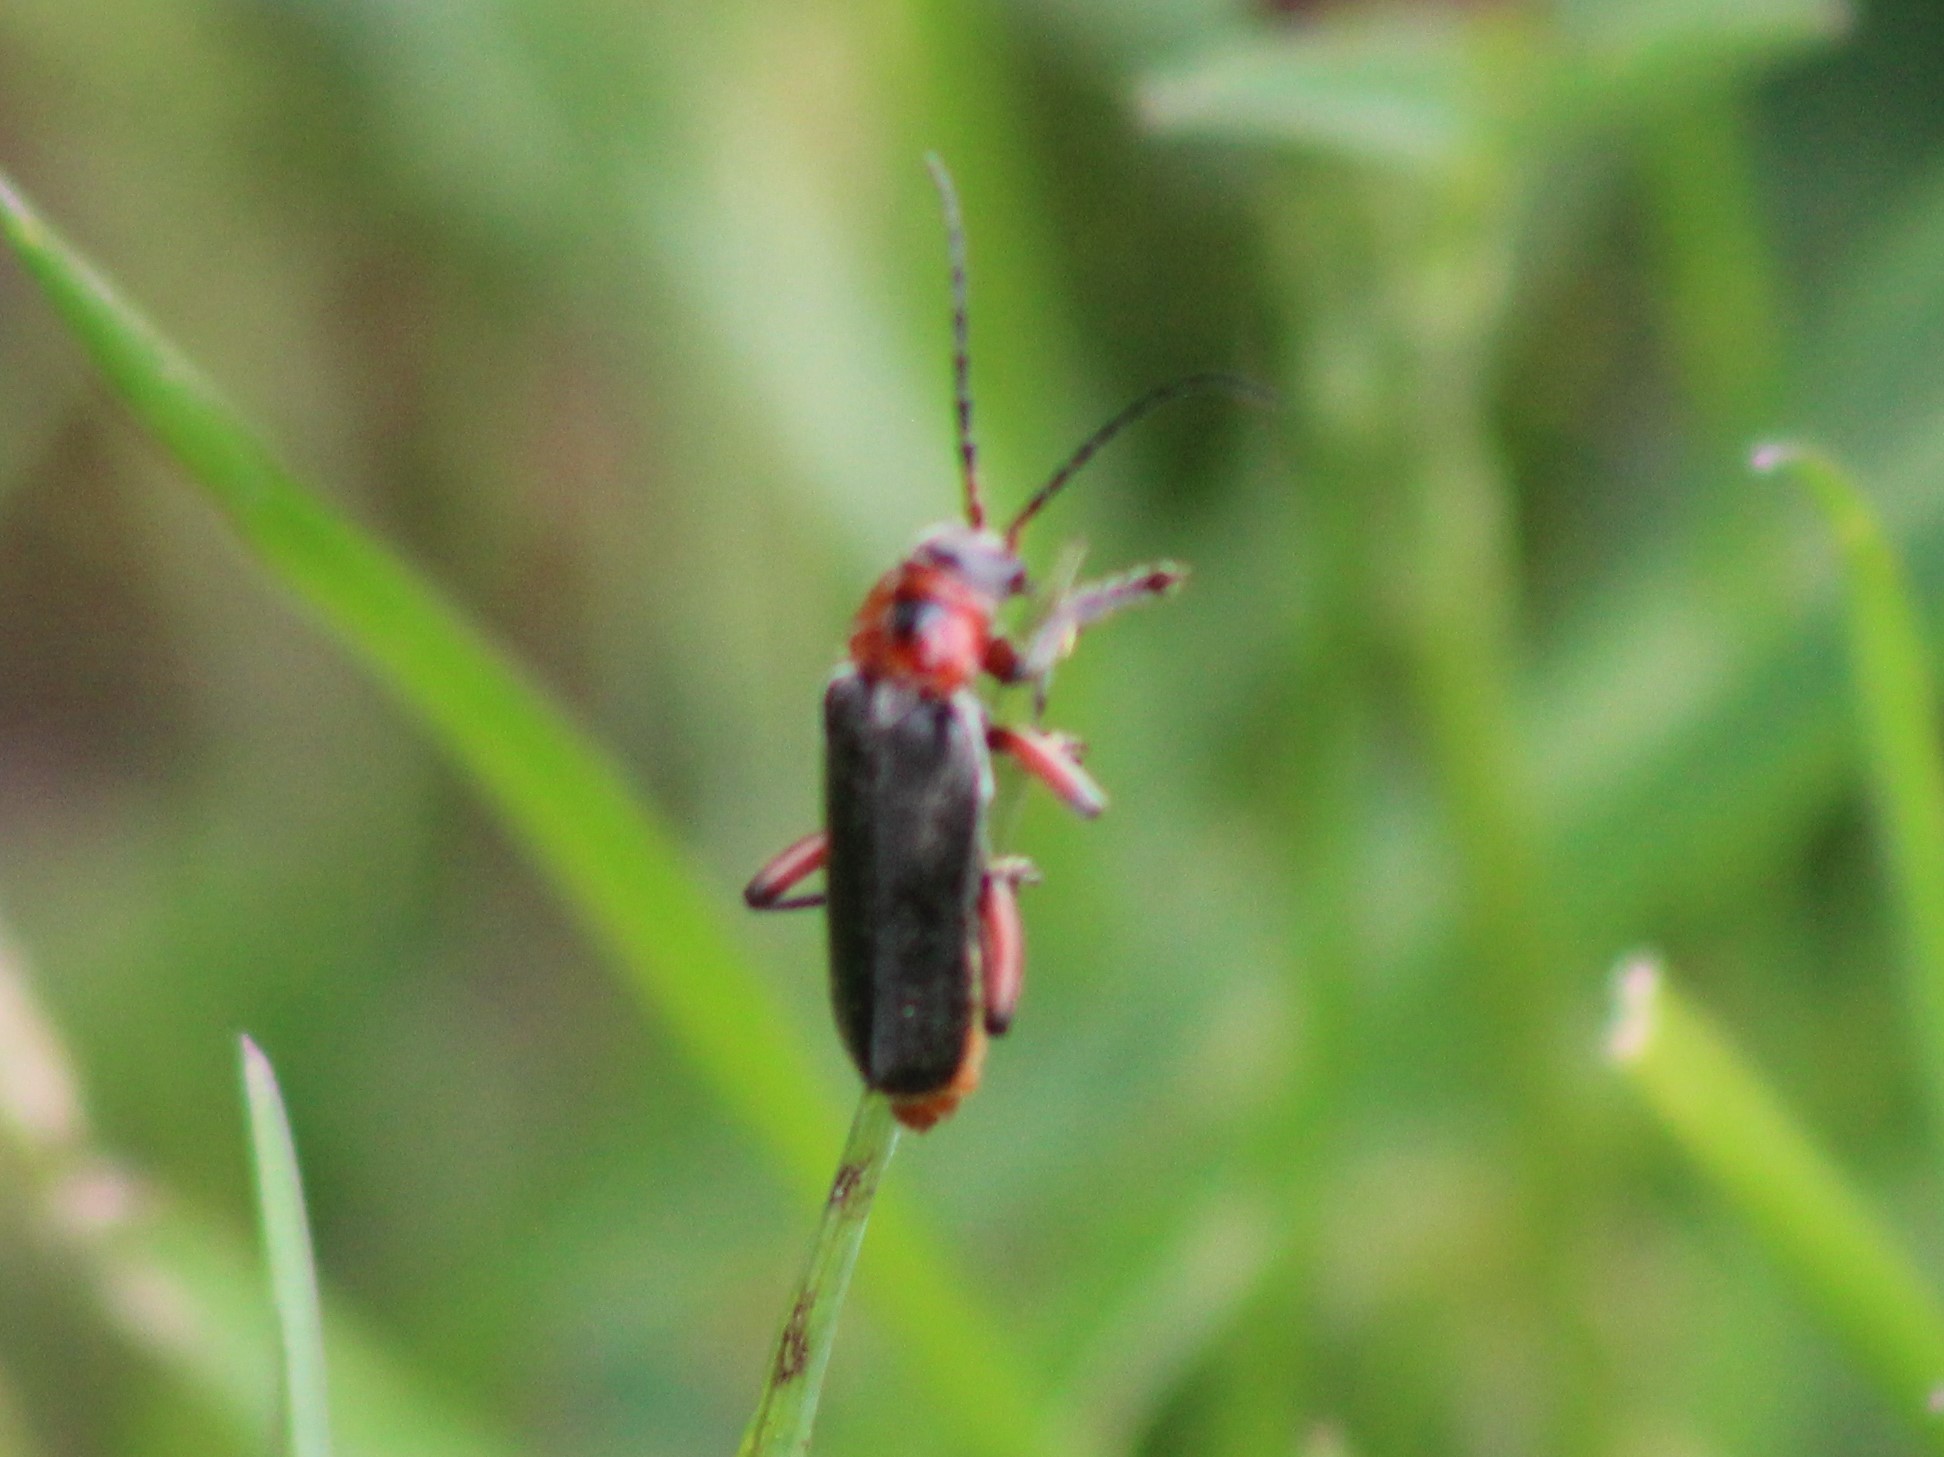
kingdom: Animalia
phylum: Arthropoda
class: Insecta
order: Coleoptera
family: Cantharidae
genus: Cantharis
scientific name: Cantharis rustica
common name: Soldier beetle
